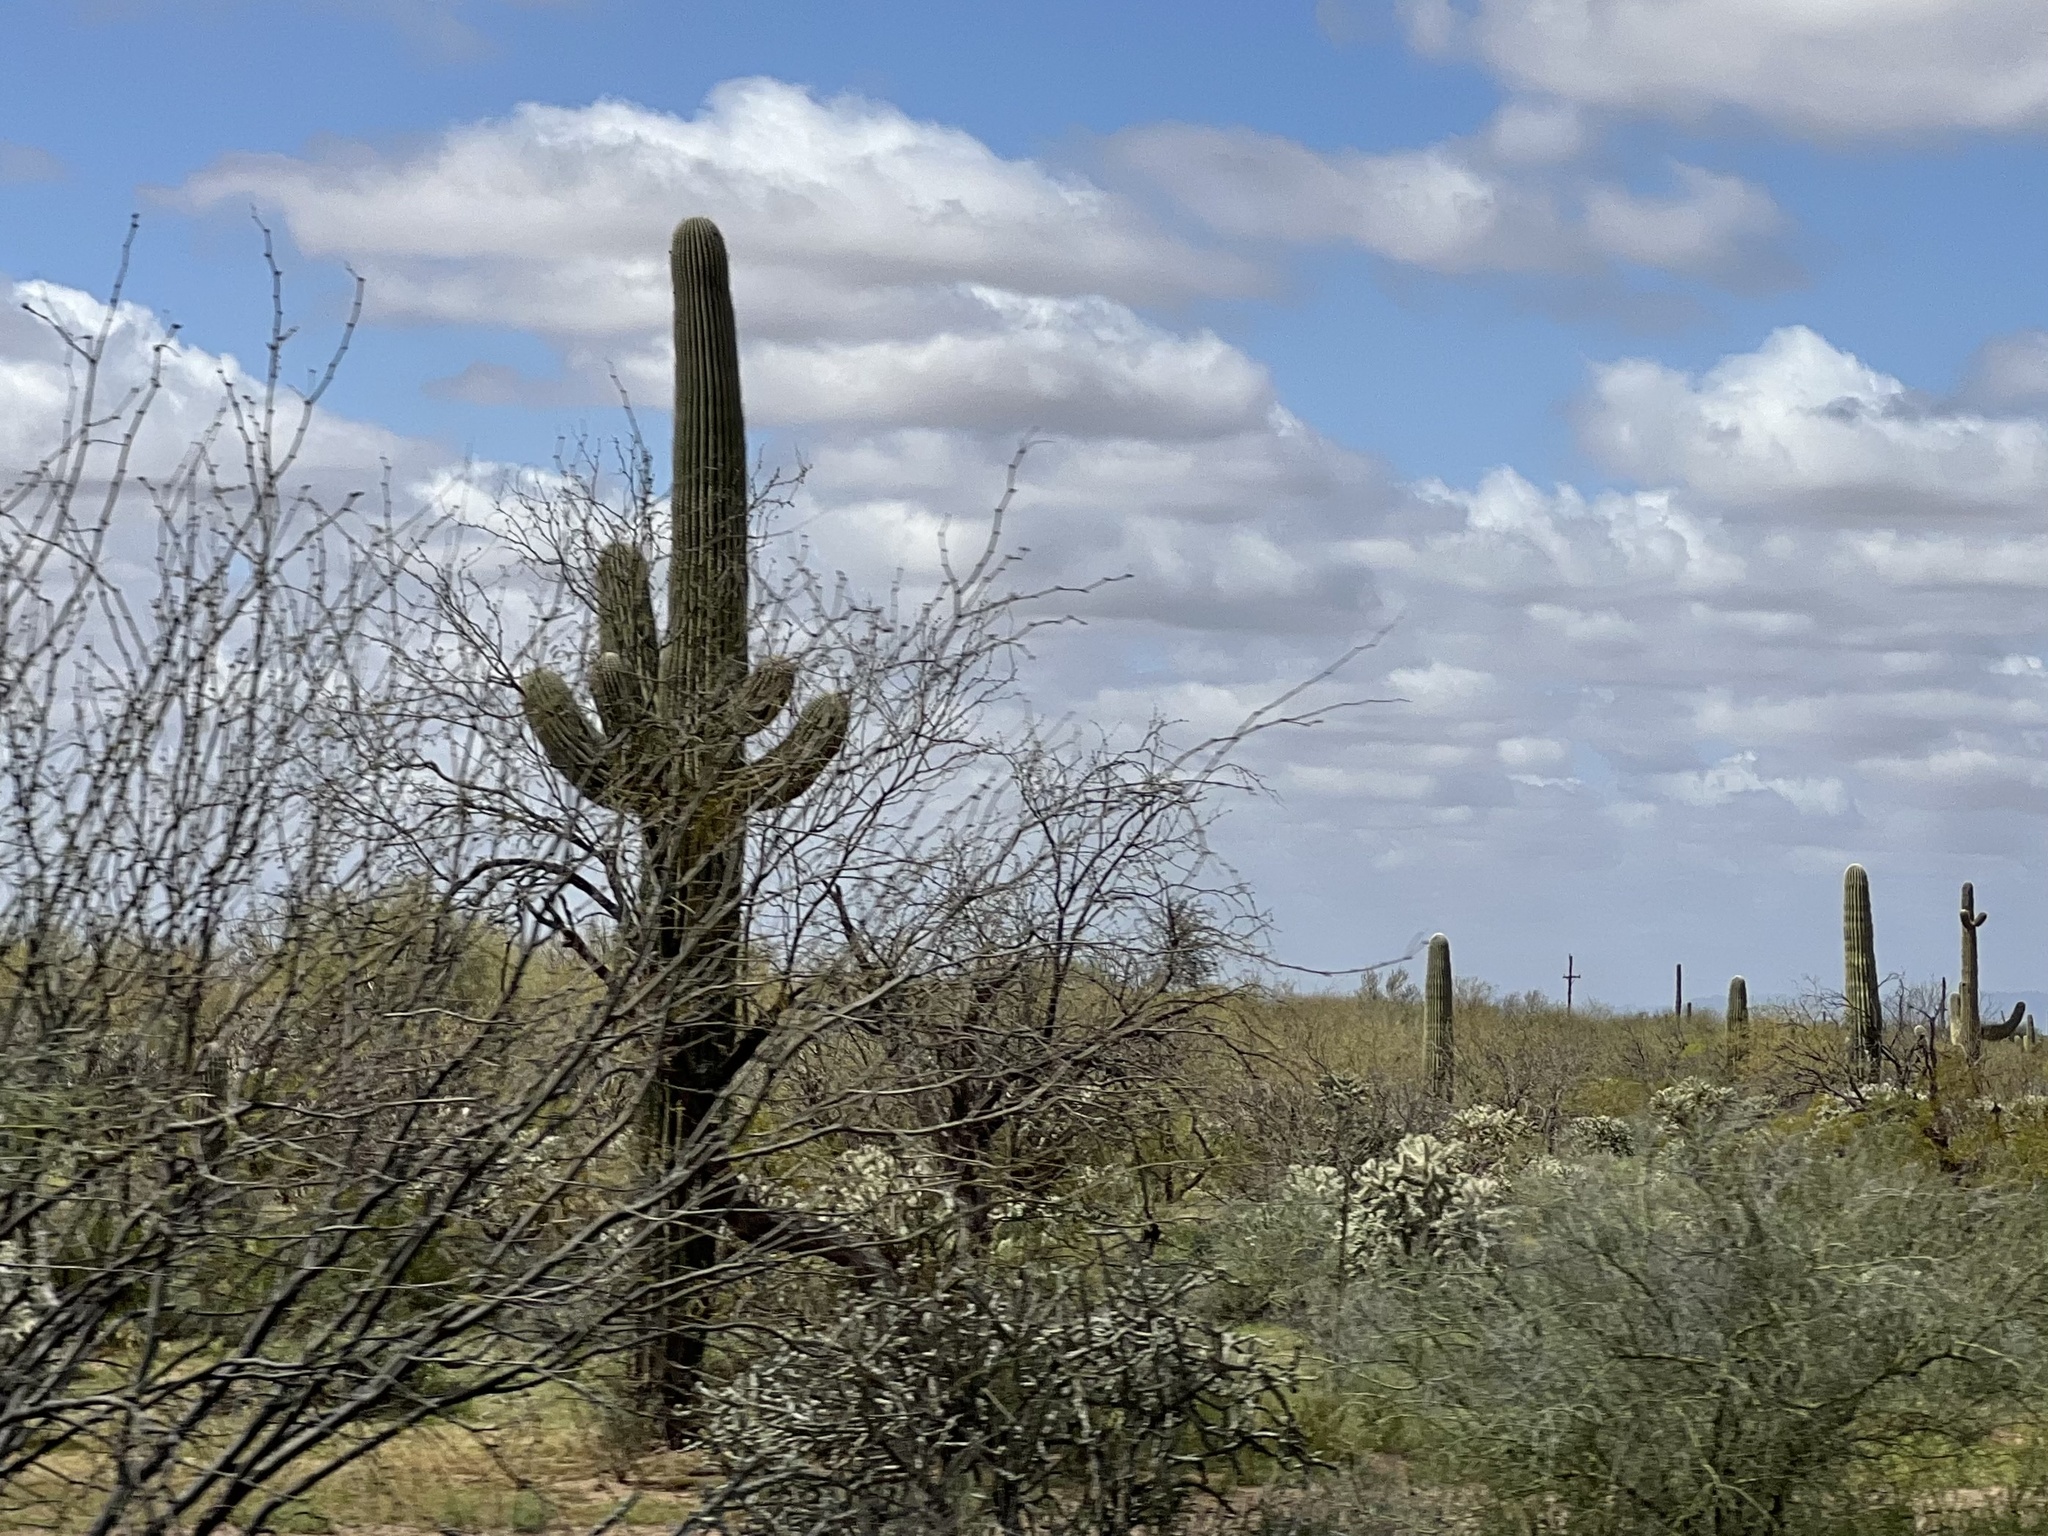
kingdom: Plantae
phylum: Tracheophyta
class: Magnoliopsida
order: Caryophyllales
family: Cactaceae
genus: Carnegiea
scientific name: Carnegiea gigantea
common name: Saguaro
